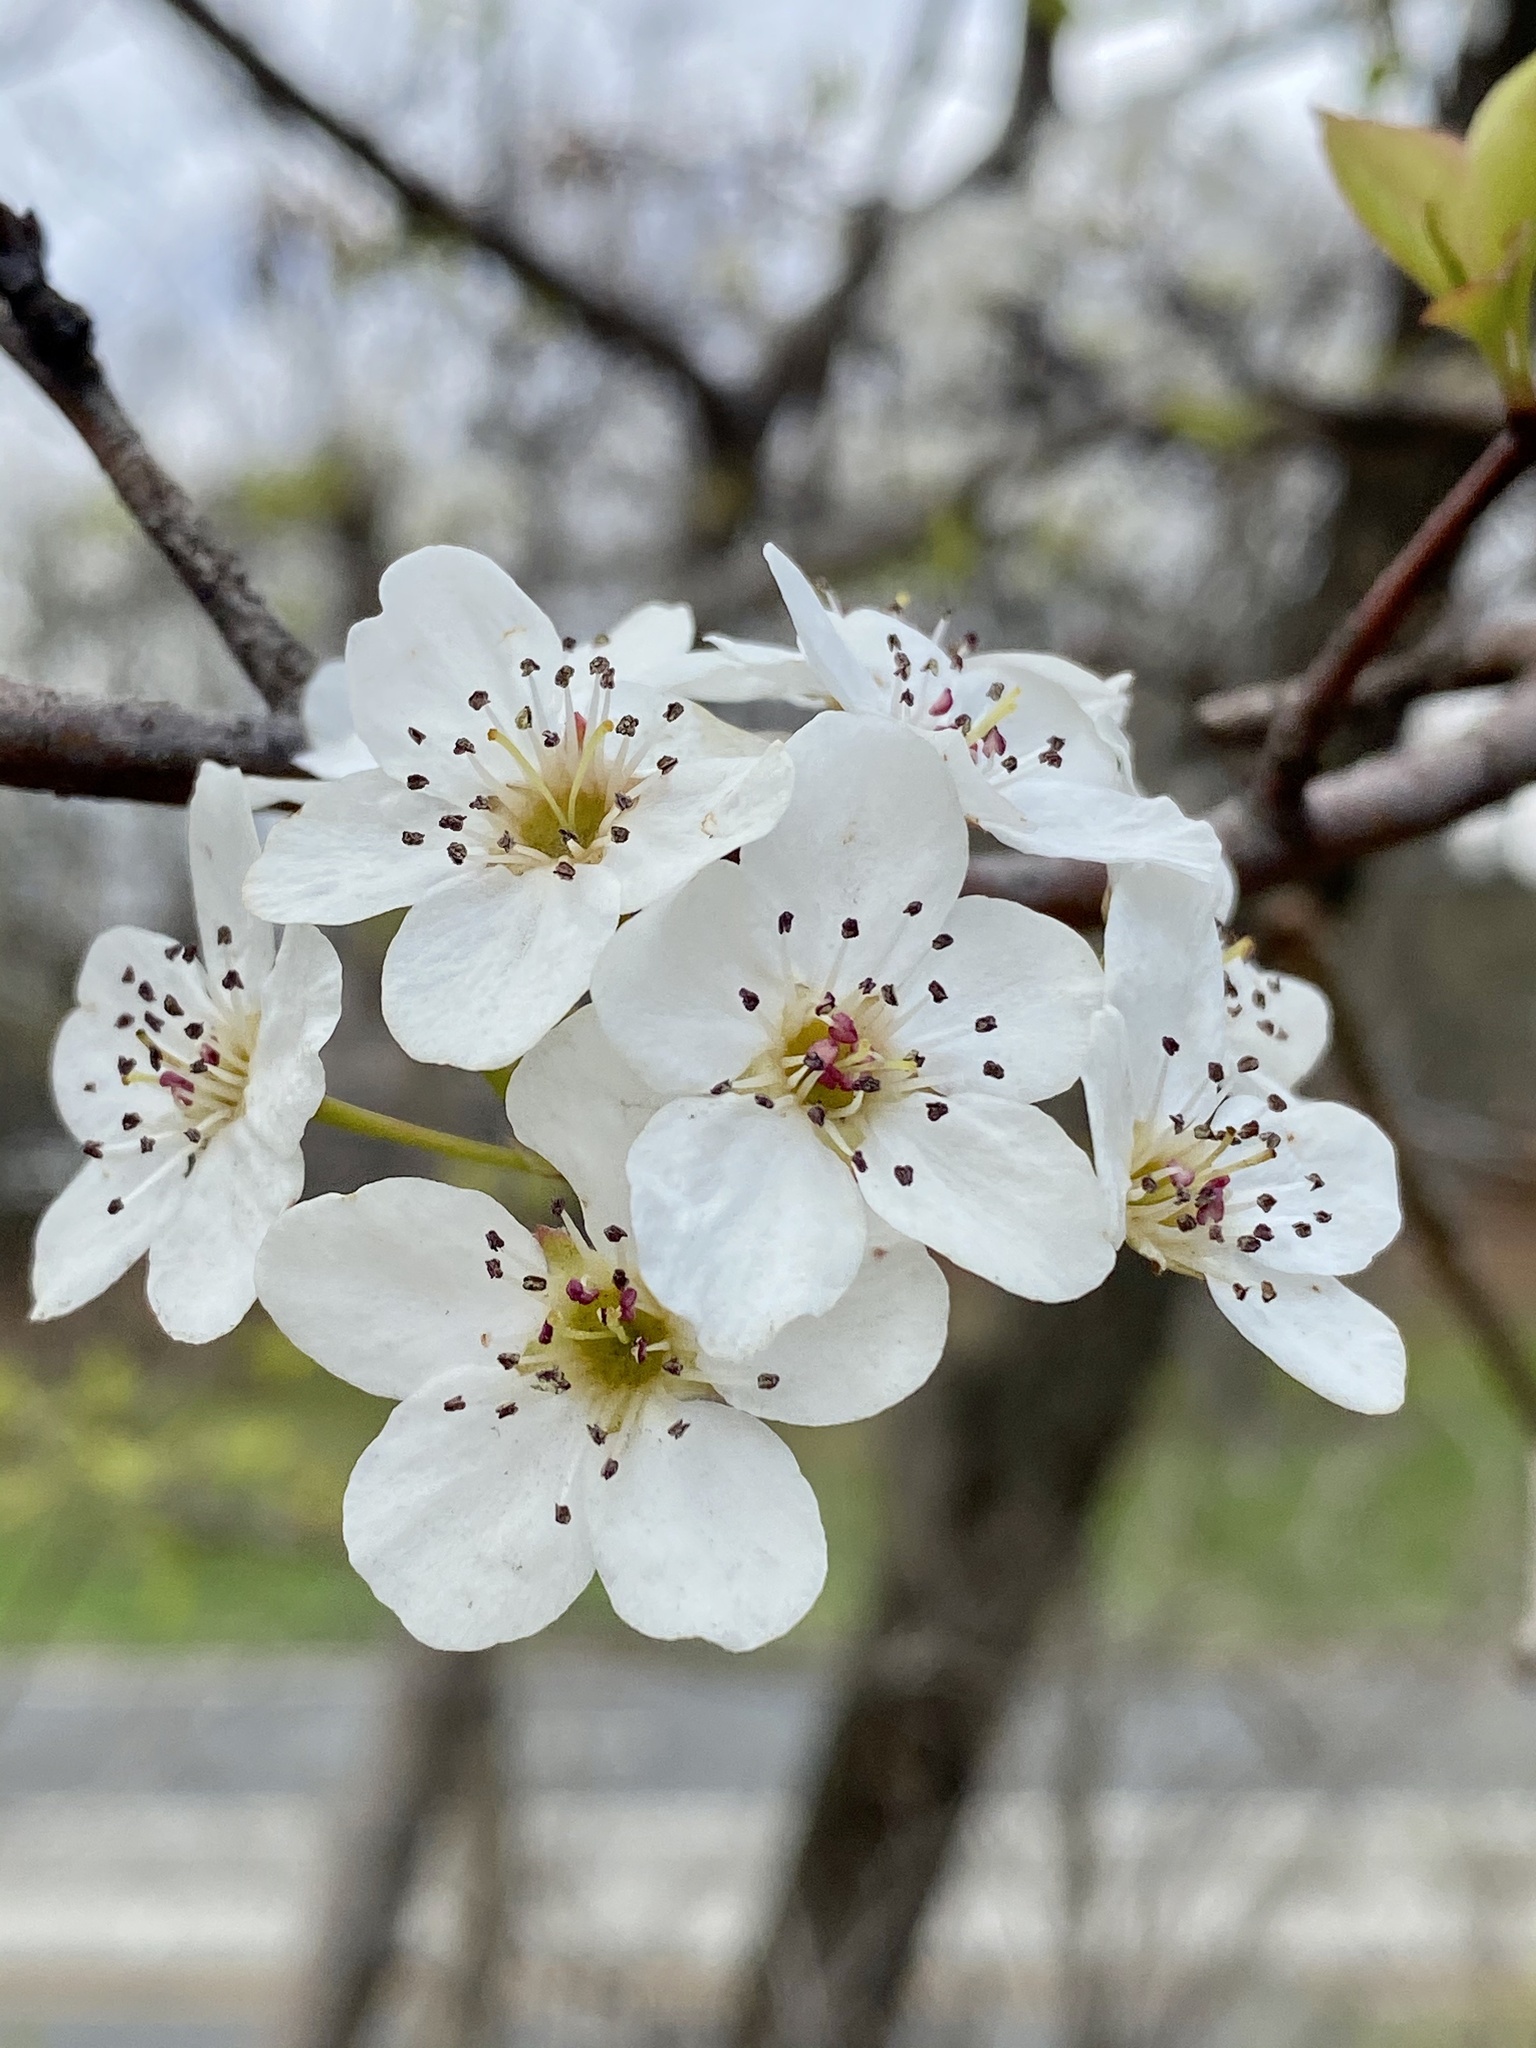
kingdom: Plantae
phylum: Tracheophyta
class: Magnoliopsida
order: Rosales
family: Rosaceae
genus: Pyrus
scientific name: Pyrus calleryana
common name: Callery pear
